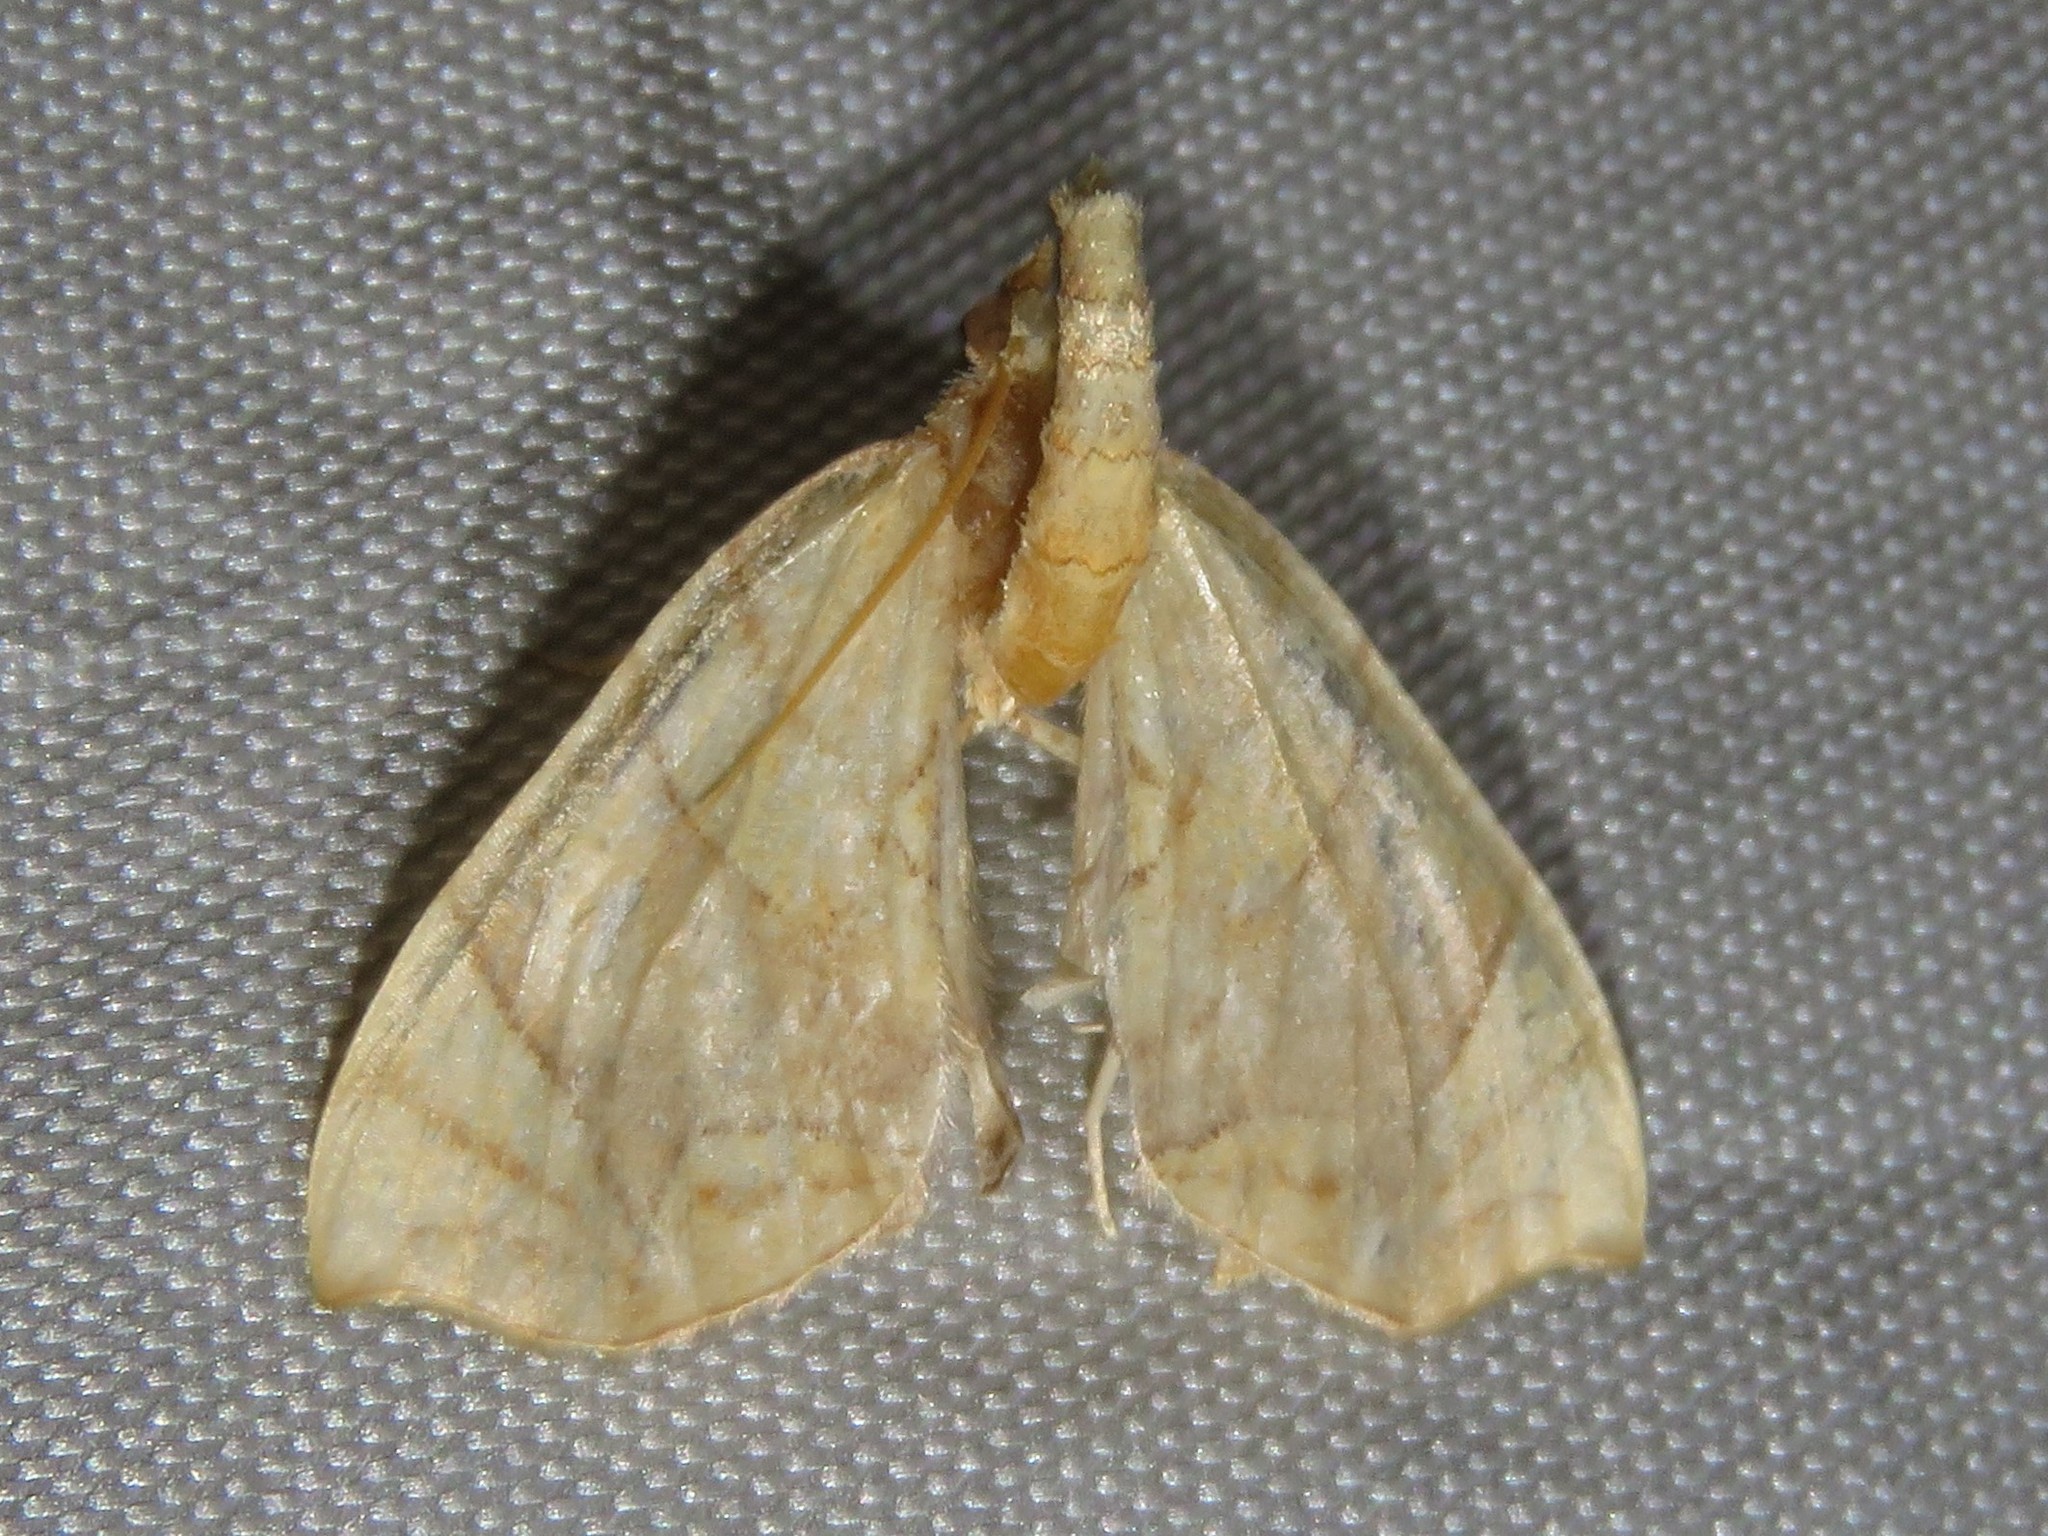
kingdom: Animalia
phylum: Arthropoda
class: Insecta
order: Lepidoptera
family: Geometridae
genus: Eulithis
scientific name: Eulithis
